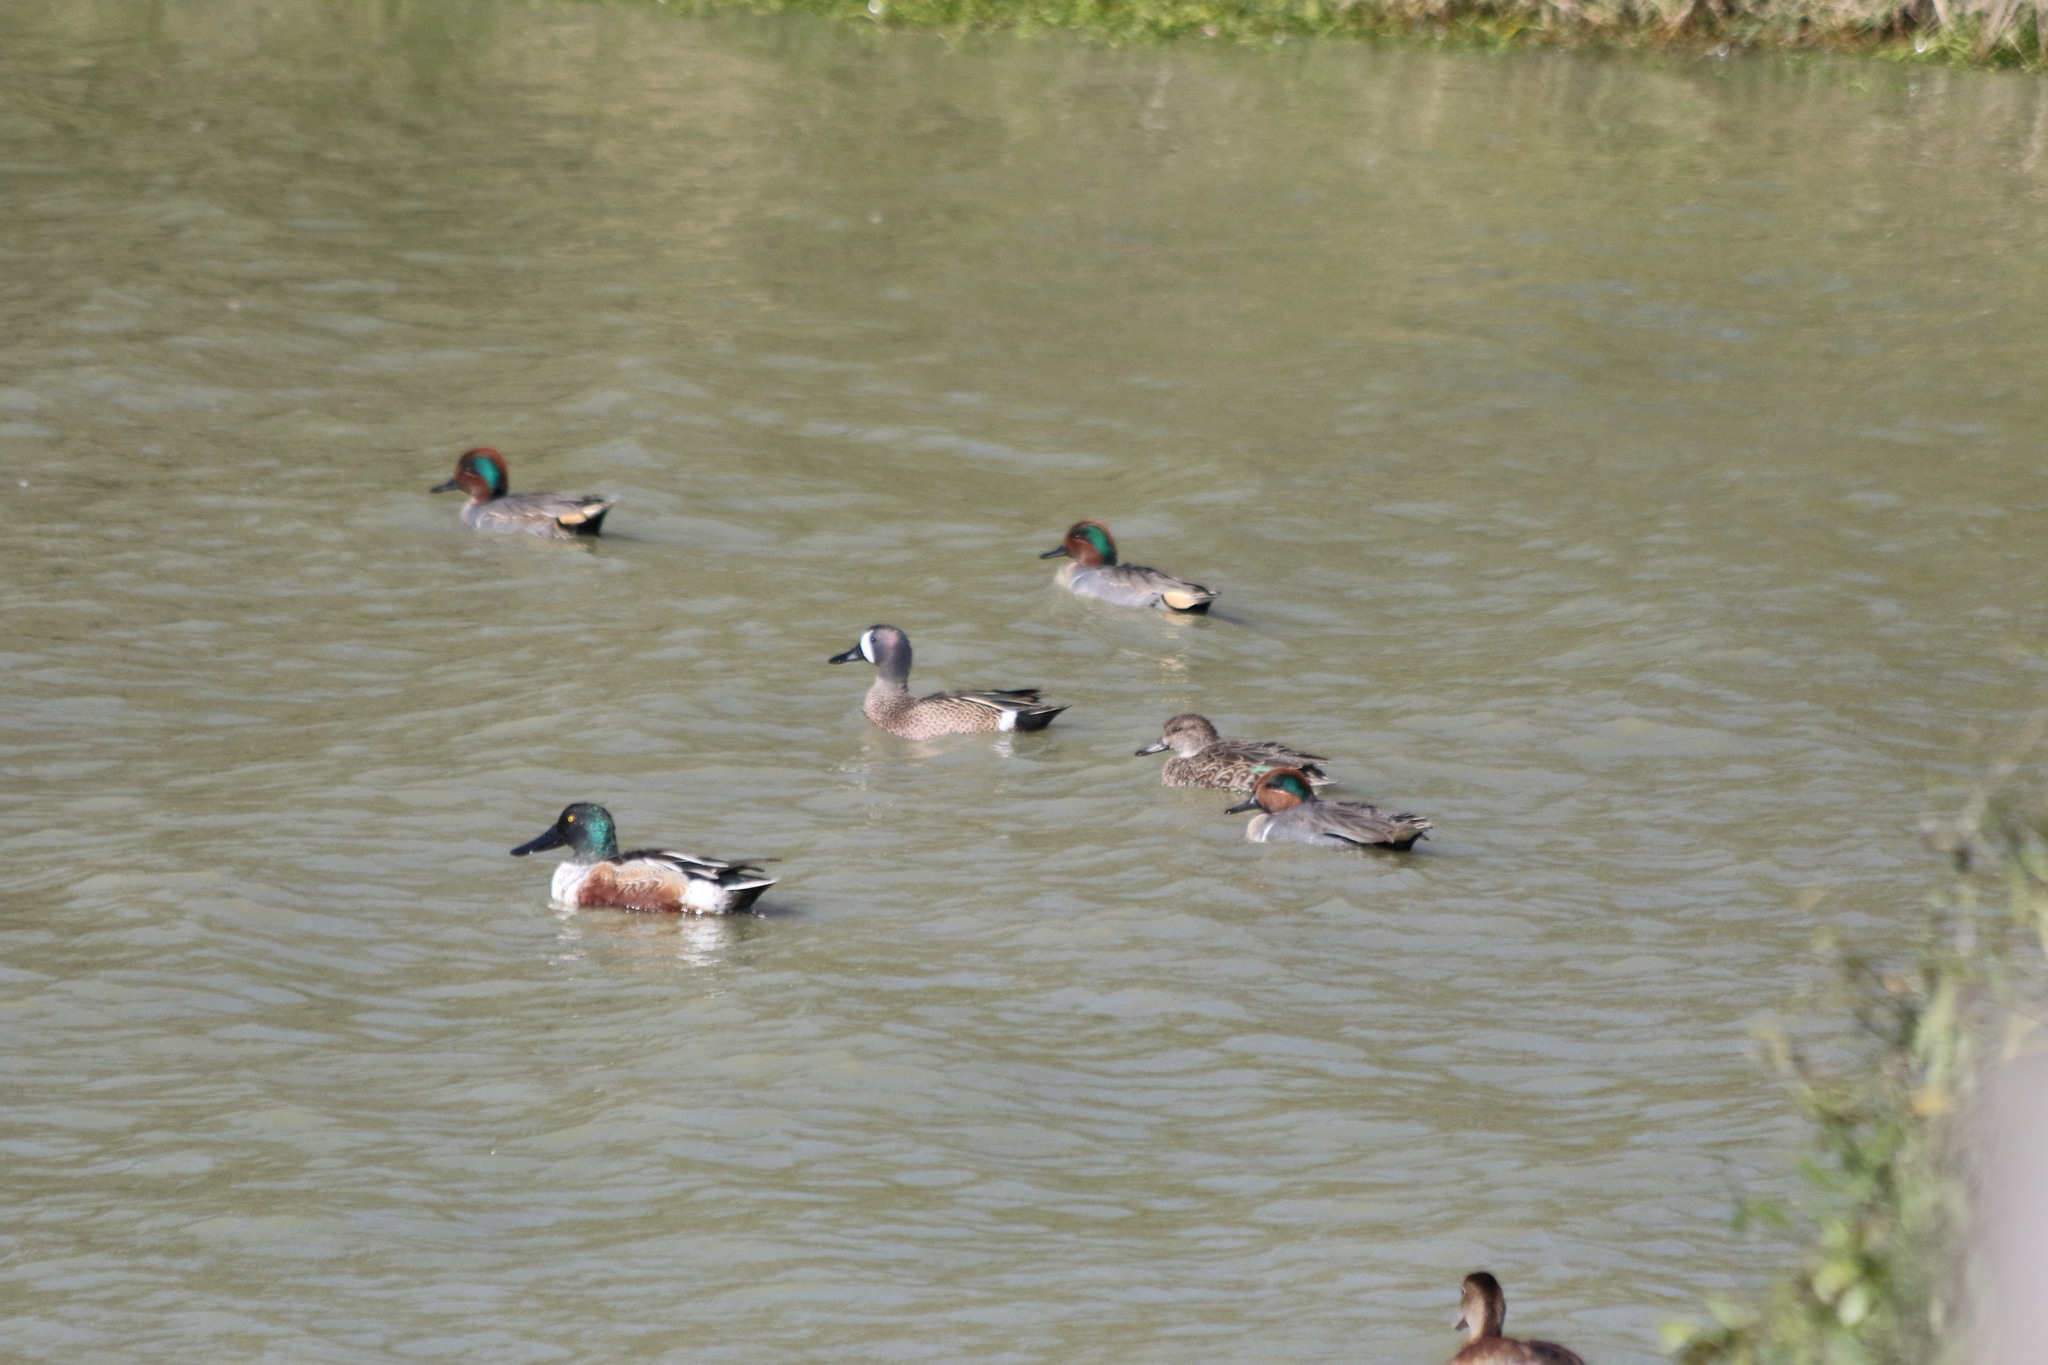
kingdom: Animalia
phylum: Chordata
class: Aves
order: Anseriformes
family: Anatidae
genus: Anas
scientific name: Anas crecca
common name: Eurasian teal
